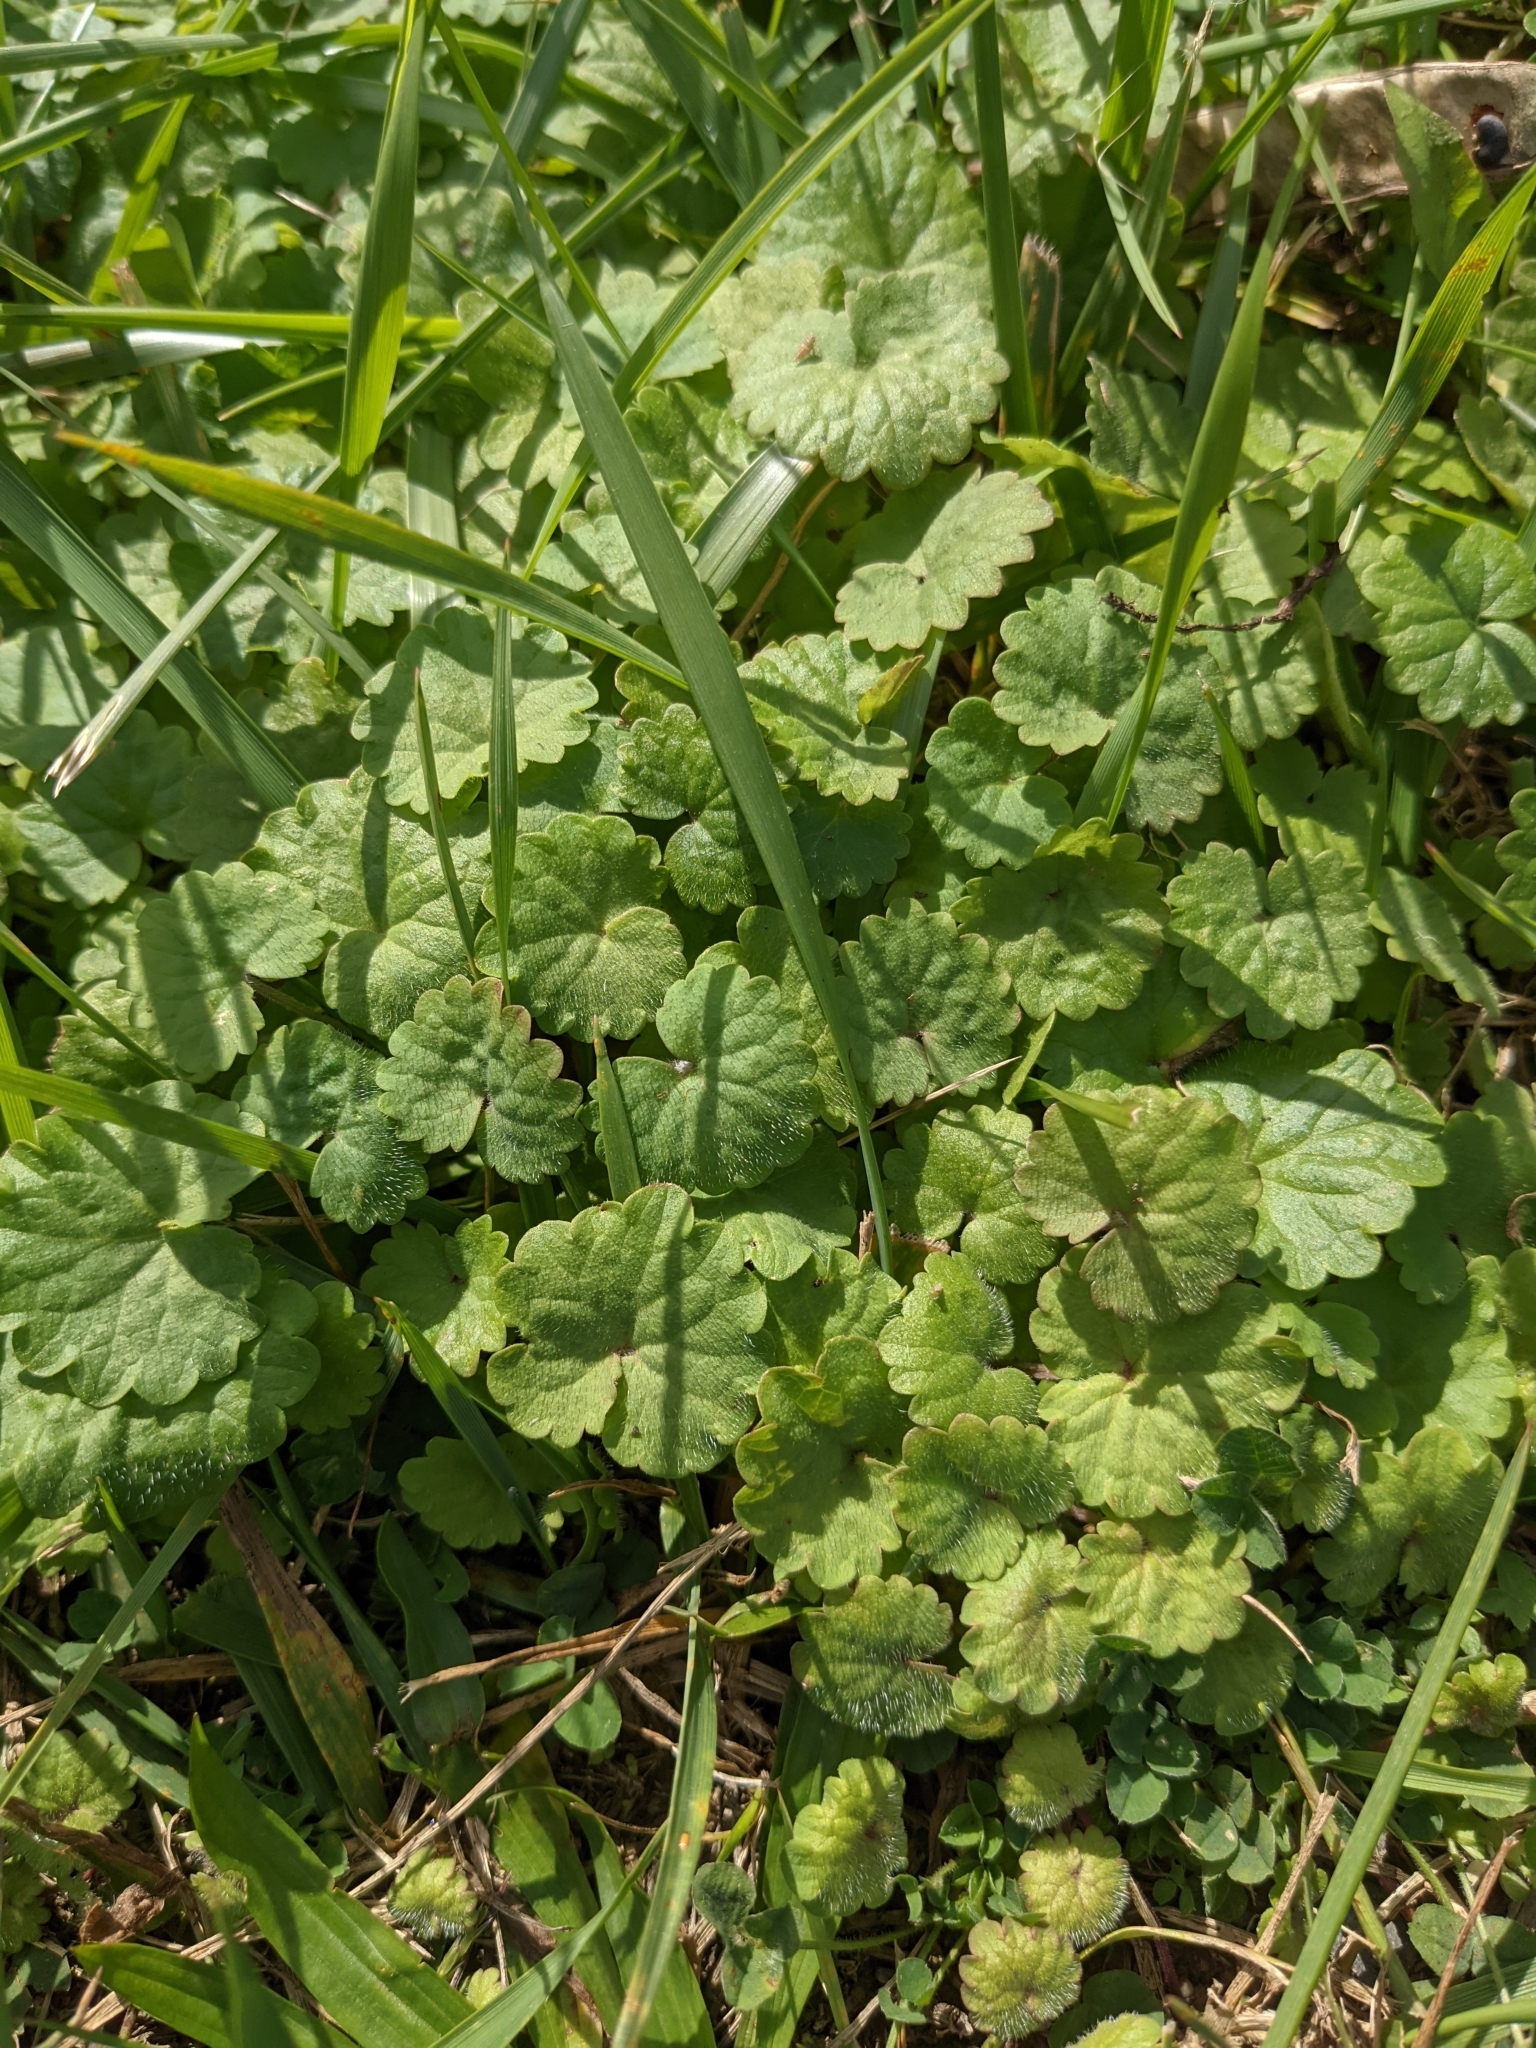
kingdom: Plantae
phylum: Tracheophyta
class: Magnoliopsida
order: Lamiales
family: Lamiaceae
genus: Glechoma
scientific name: Glechoma hederacea
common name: Ground ivy
